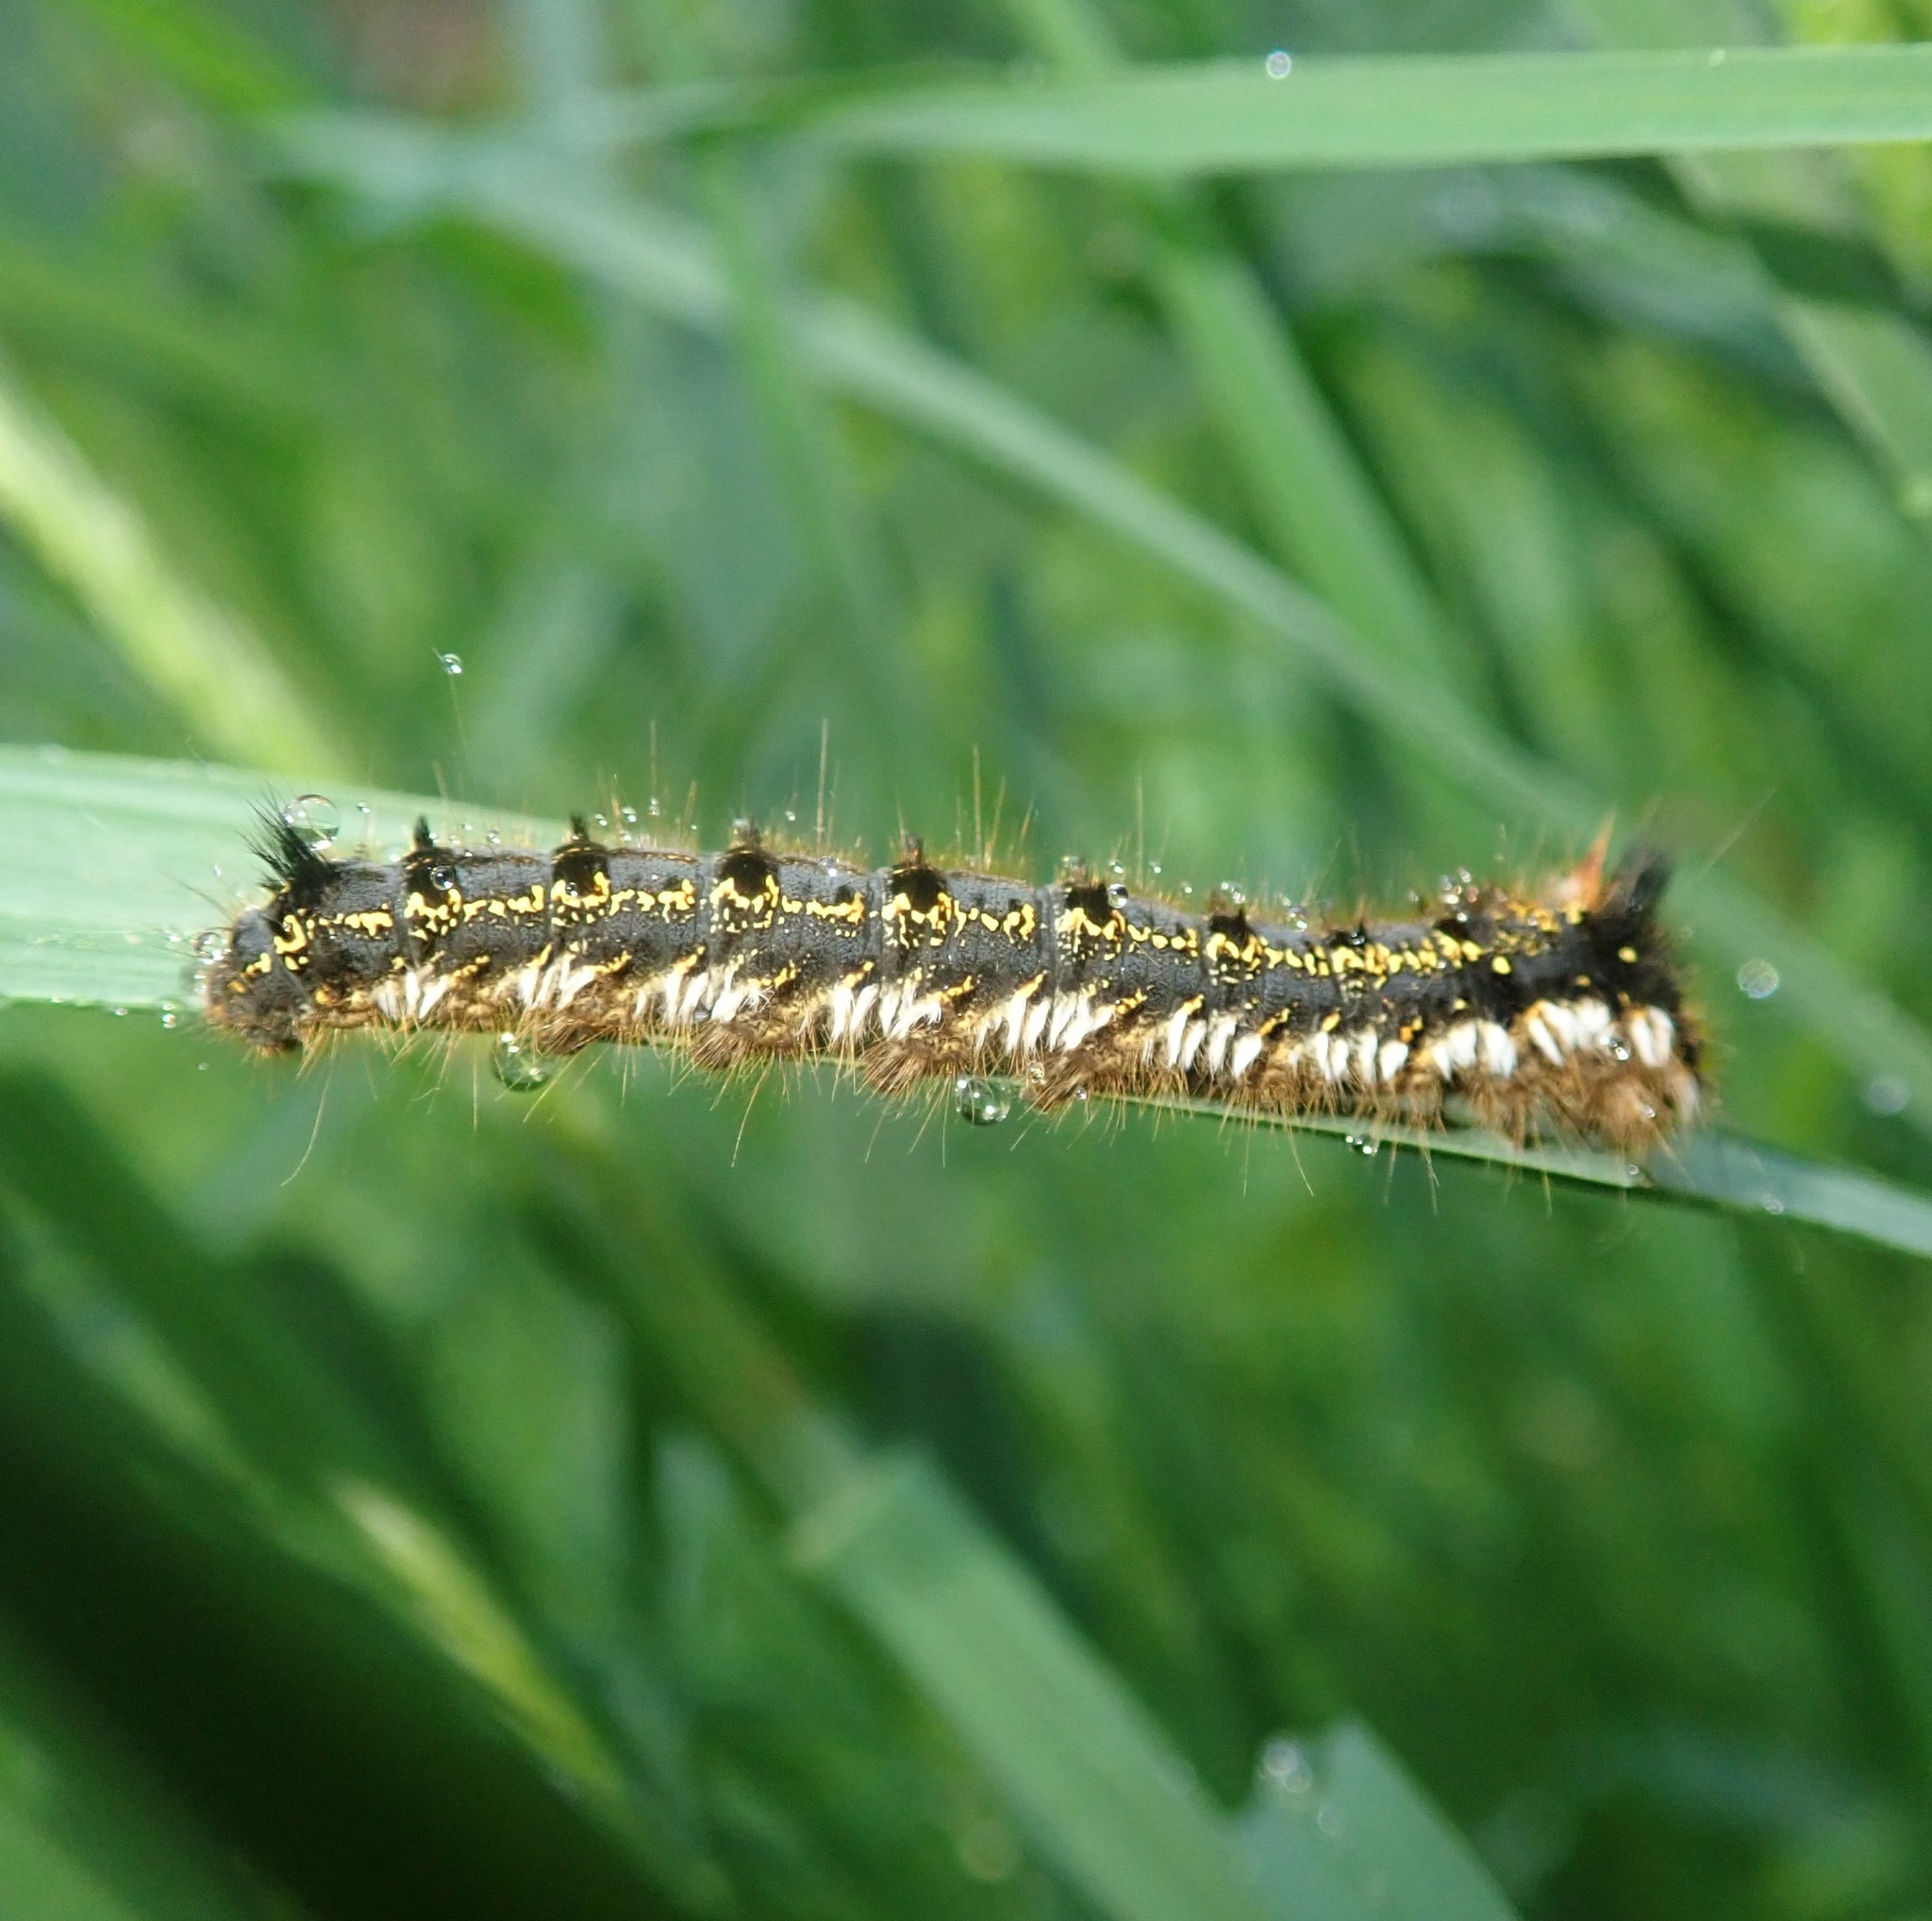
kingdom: Animalia
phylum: Arthropoda
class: Insecta
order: Lepidoptera
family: Lasiocampidae
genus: Euthrix
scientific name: Euthrix potatoria
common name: Drinker
